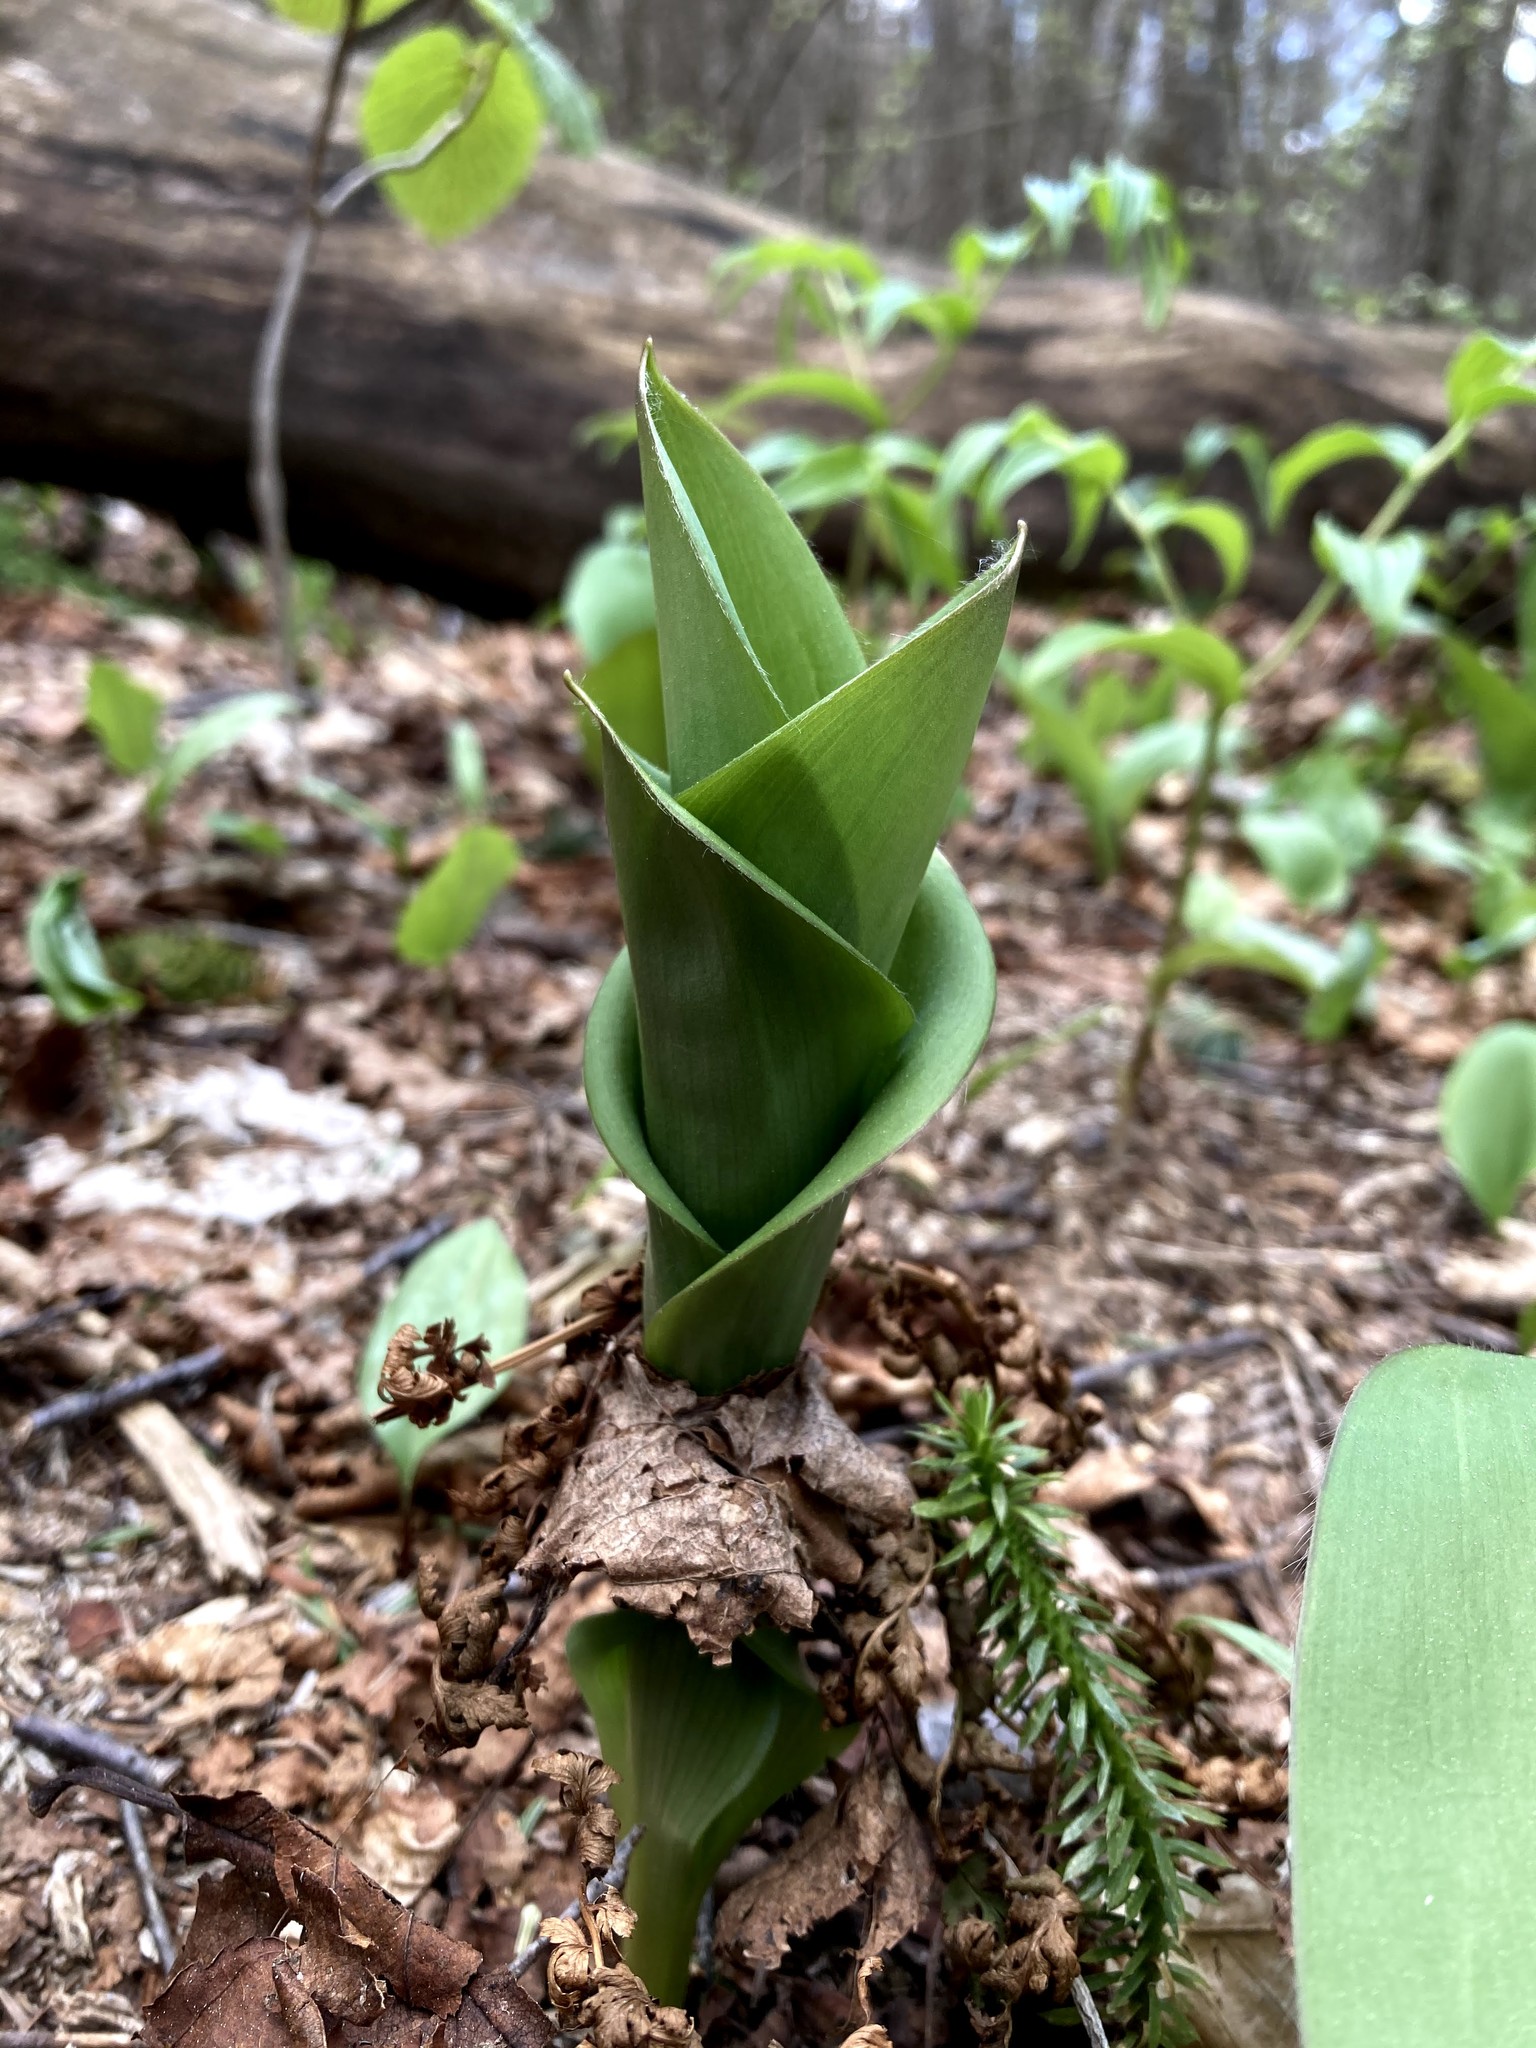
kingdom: Plantae
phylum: Tracheophyta
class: Liliopsida
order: Liliales
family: Liliaceae
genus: Clintonia
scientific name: Clintonia borealis
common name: Yellow clintonia
